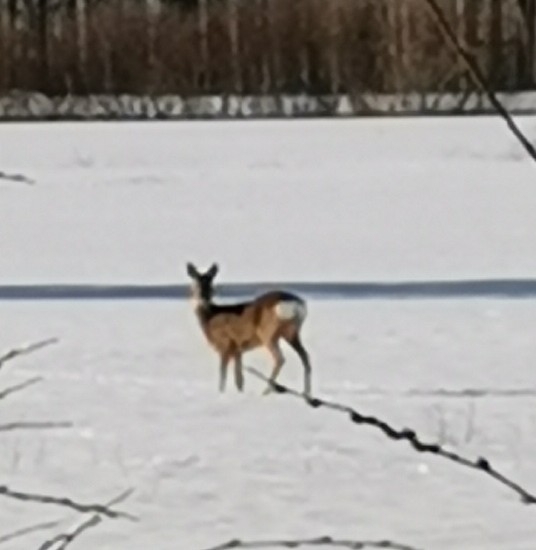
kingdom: Animalia
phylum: Chordata
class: Mammalia
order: Artiodactyla
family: Cervidae
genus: Capreolus
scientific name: Capreolus capreolus
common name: Western roe deer
